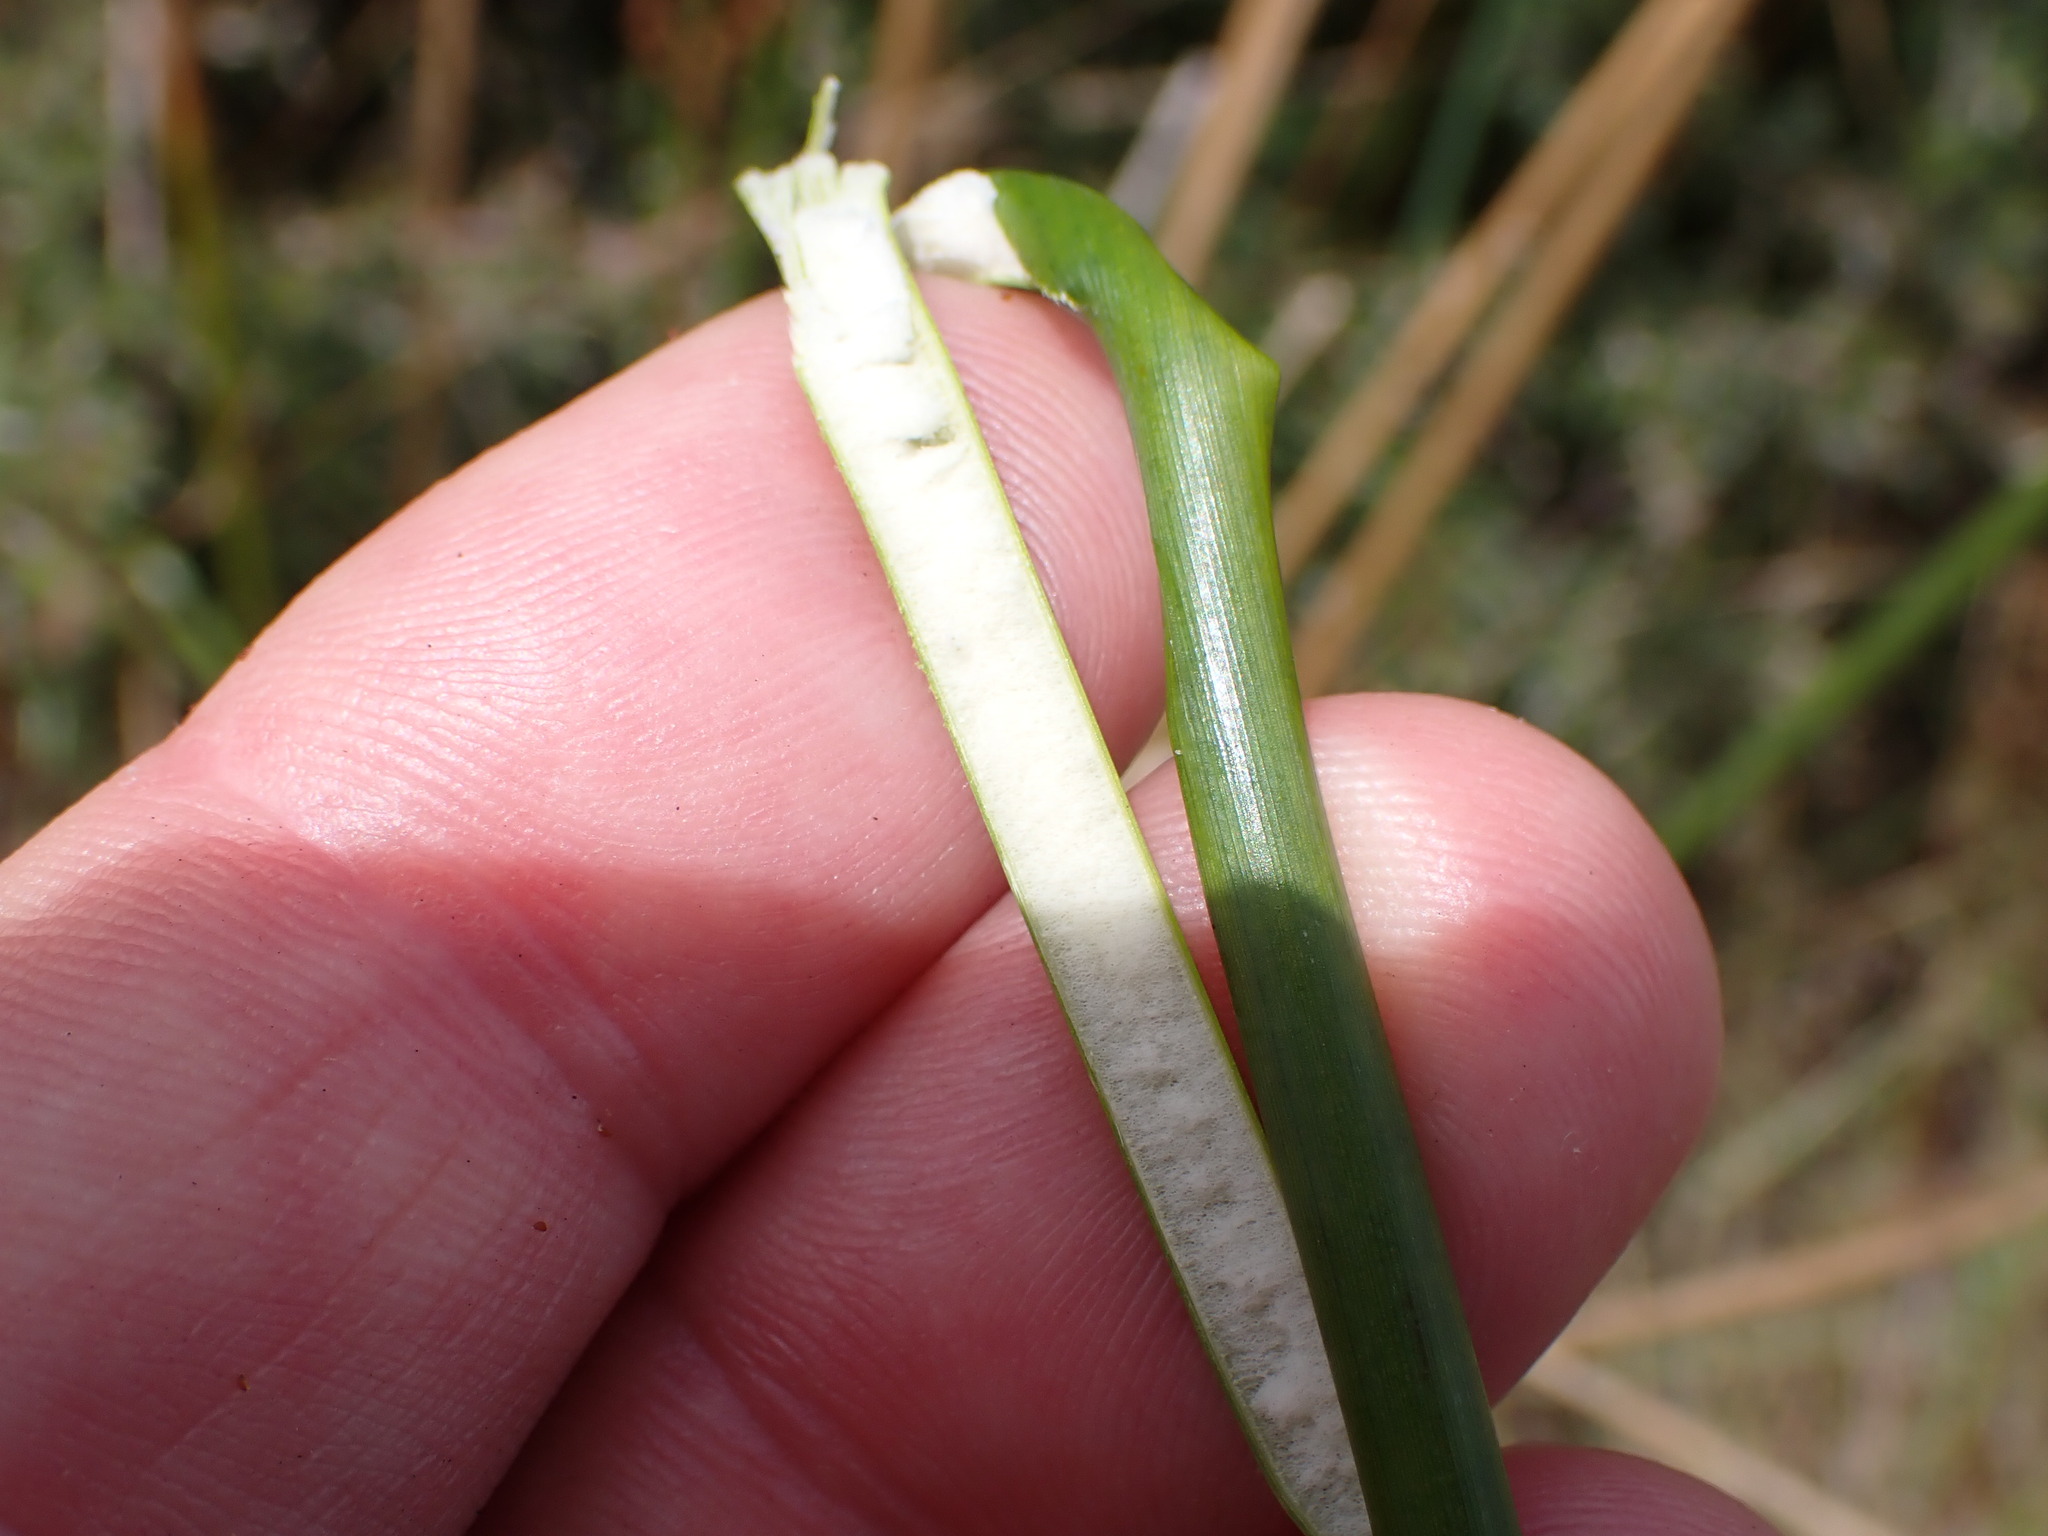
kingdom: Plantae
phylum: Tracheophyta
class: Liliopsida
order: Poales
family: Juncaceae
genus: Juncus
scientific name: Juncus pallidus
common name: Great soft-rush
